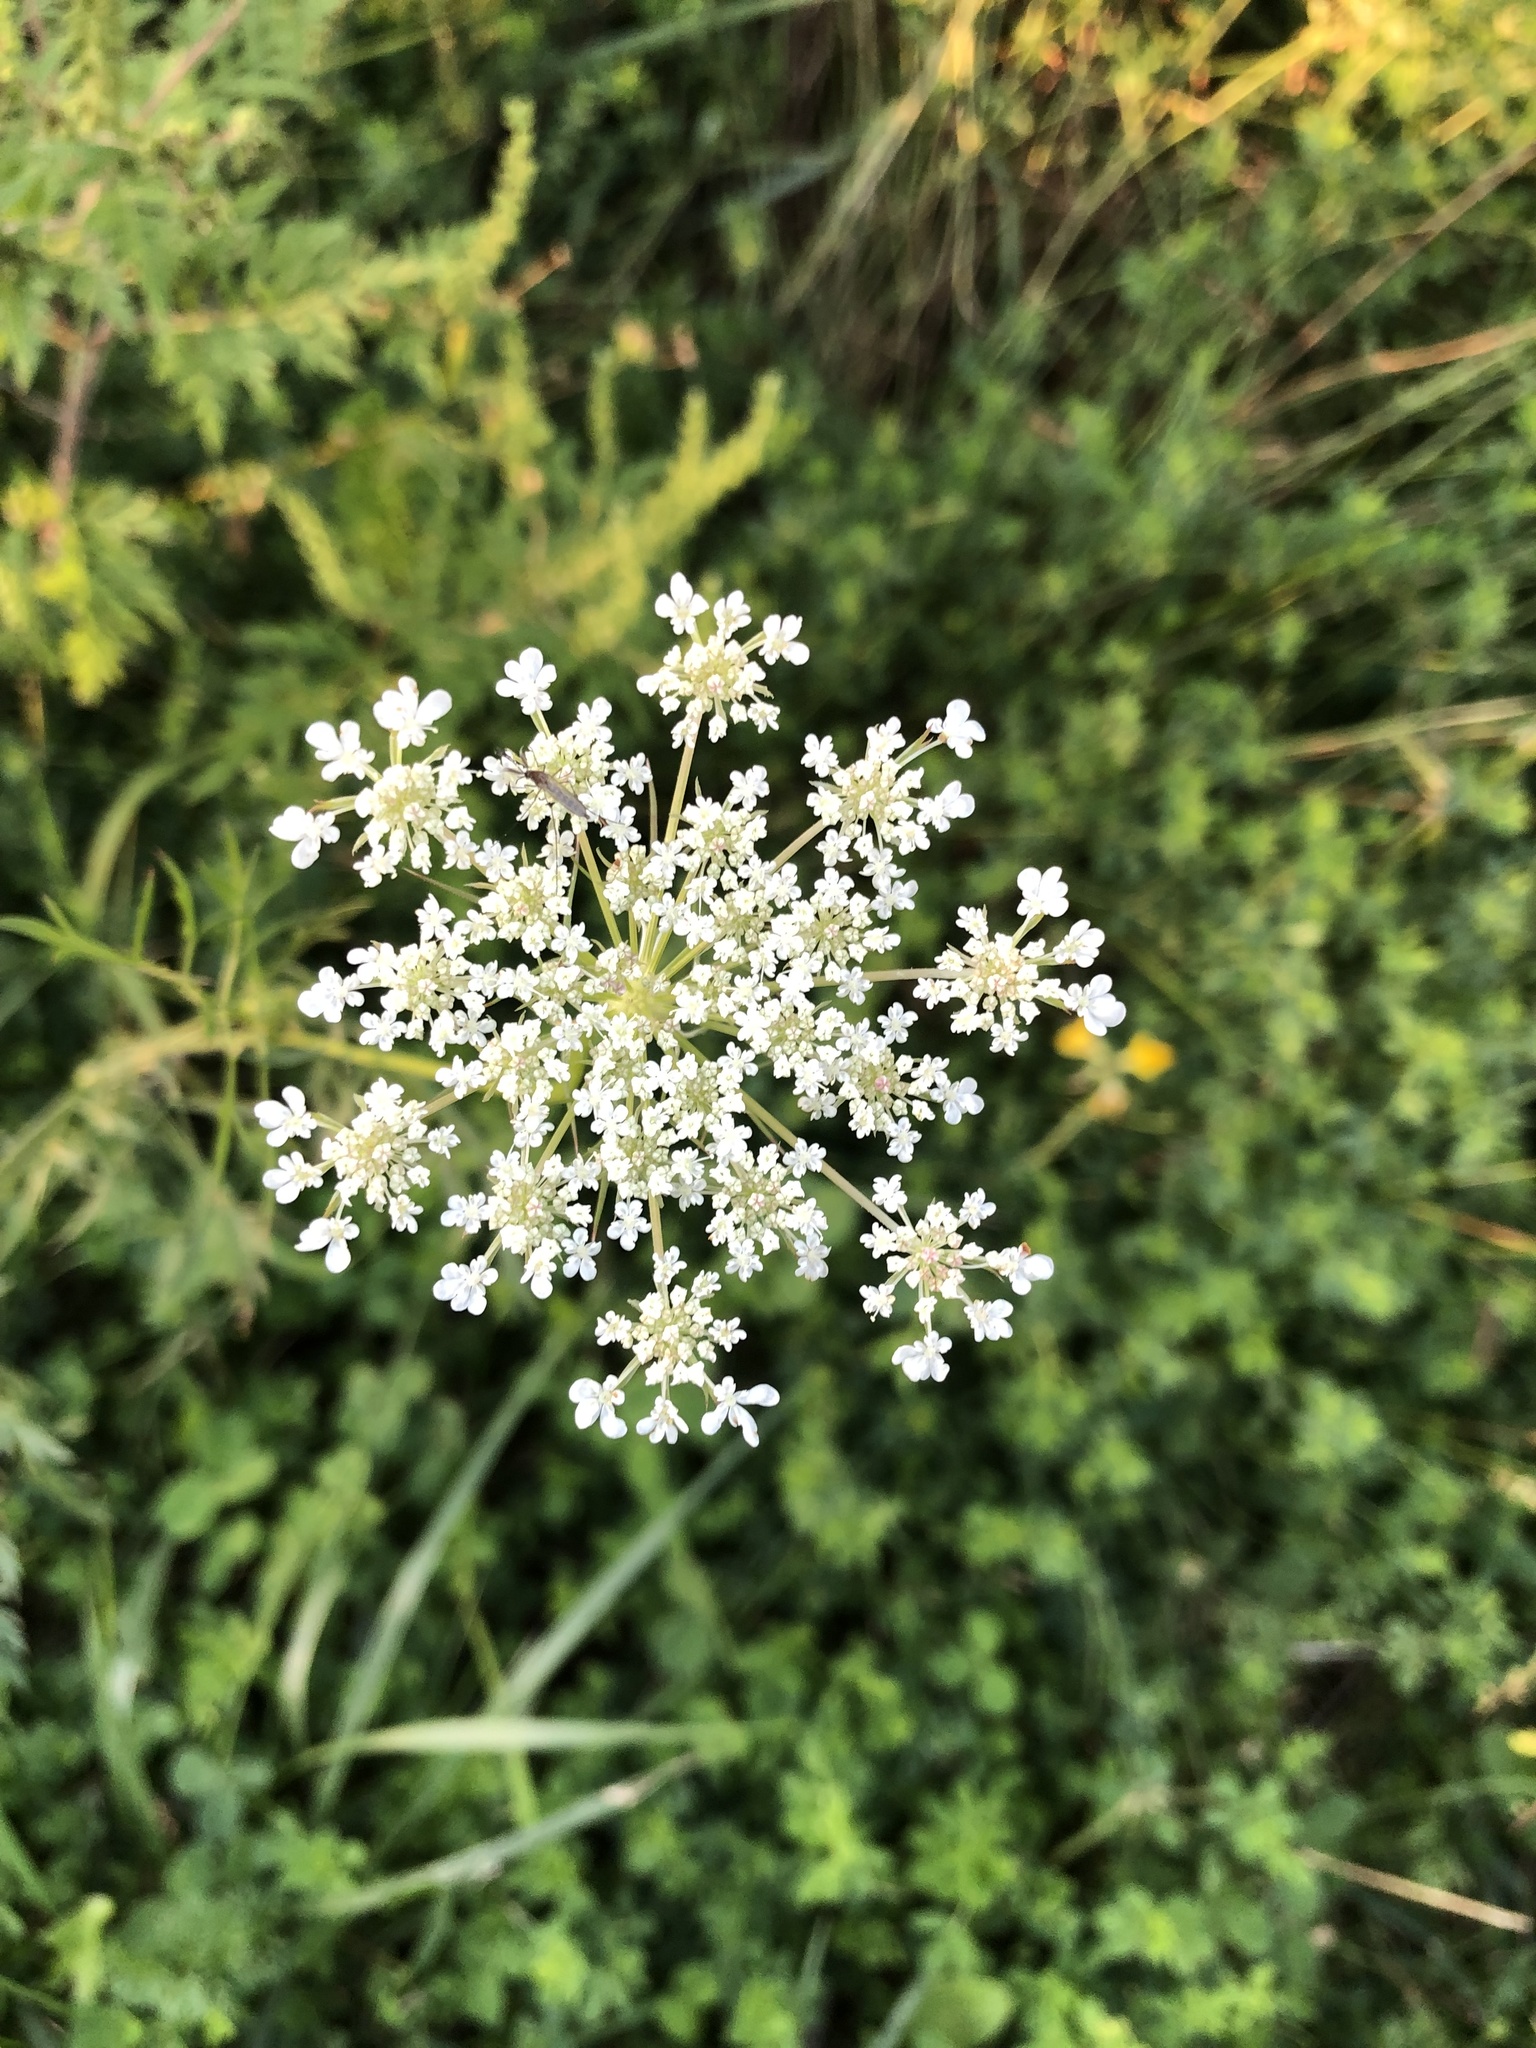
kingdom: Plantae
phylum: Tracheophyta
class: Magnoliopsida
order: Apiales
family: Apiaceae
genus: Daucus
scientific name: Daucus carota
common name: Wild carrot
